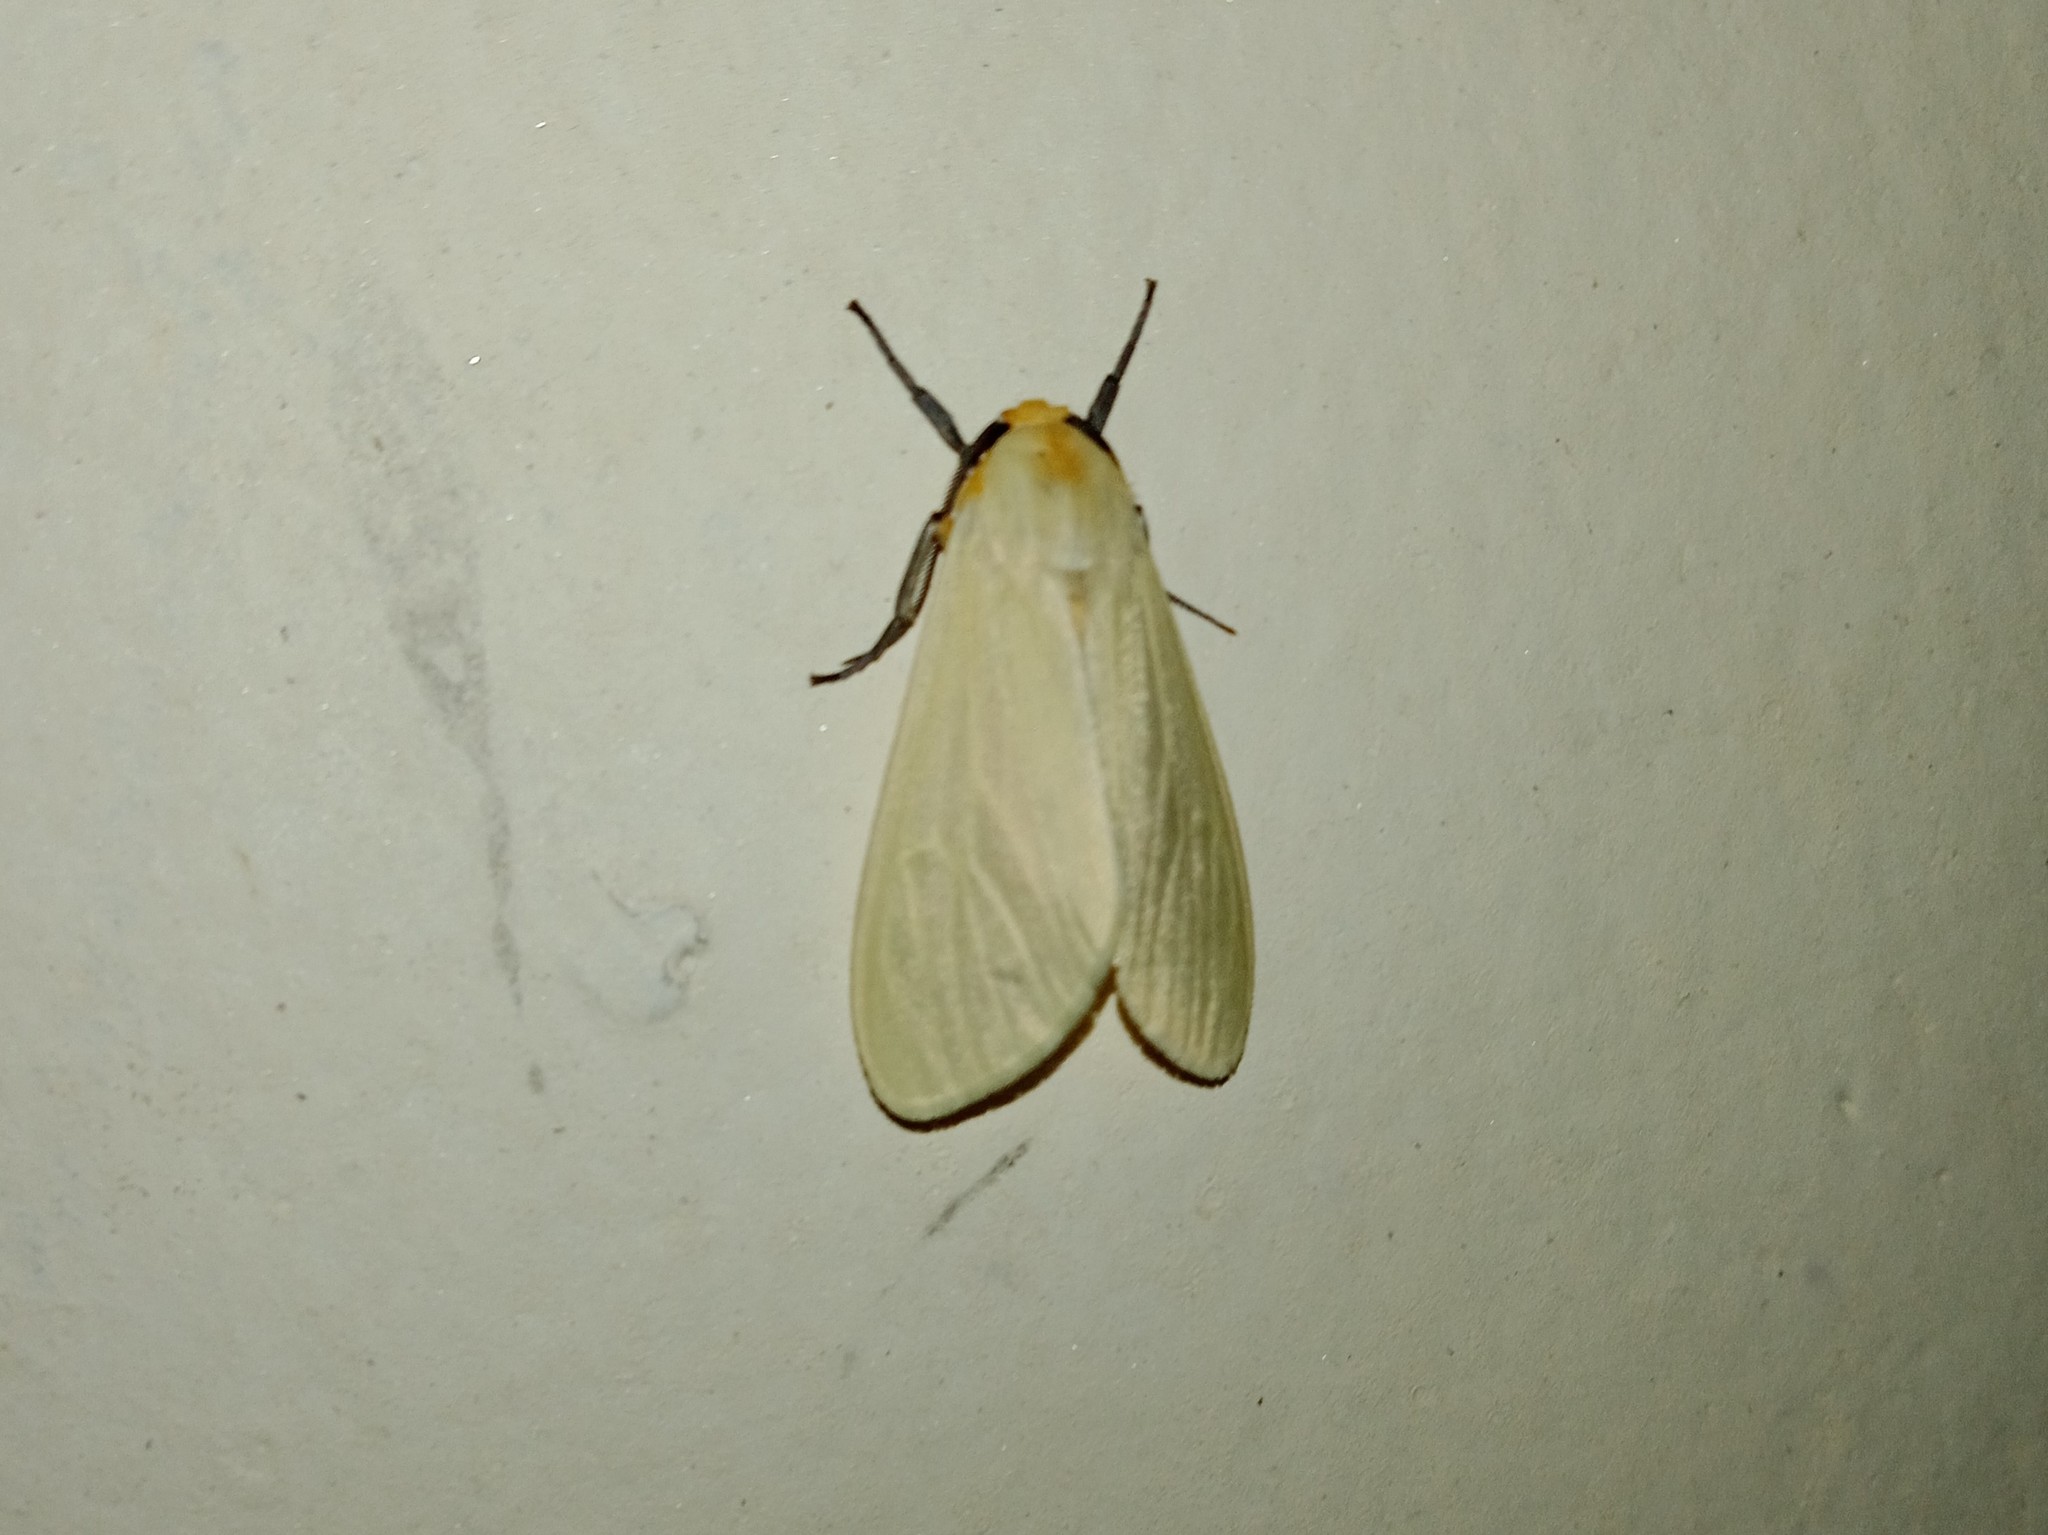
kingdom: Animalia
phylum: Arthropoda
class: Insecta
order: Lepidoptera
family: Erebidae
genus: Pareuchaetes
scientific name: Pareuchaetes pseudoinsulata
